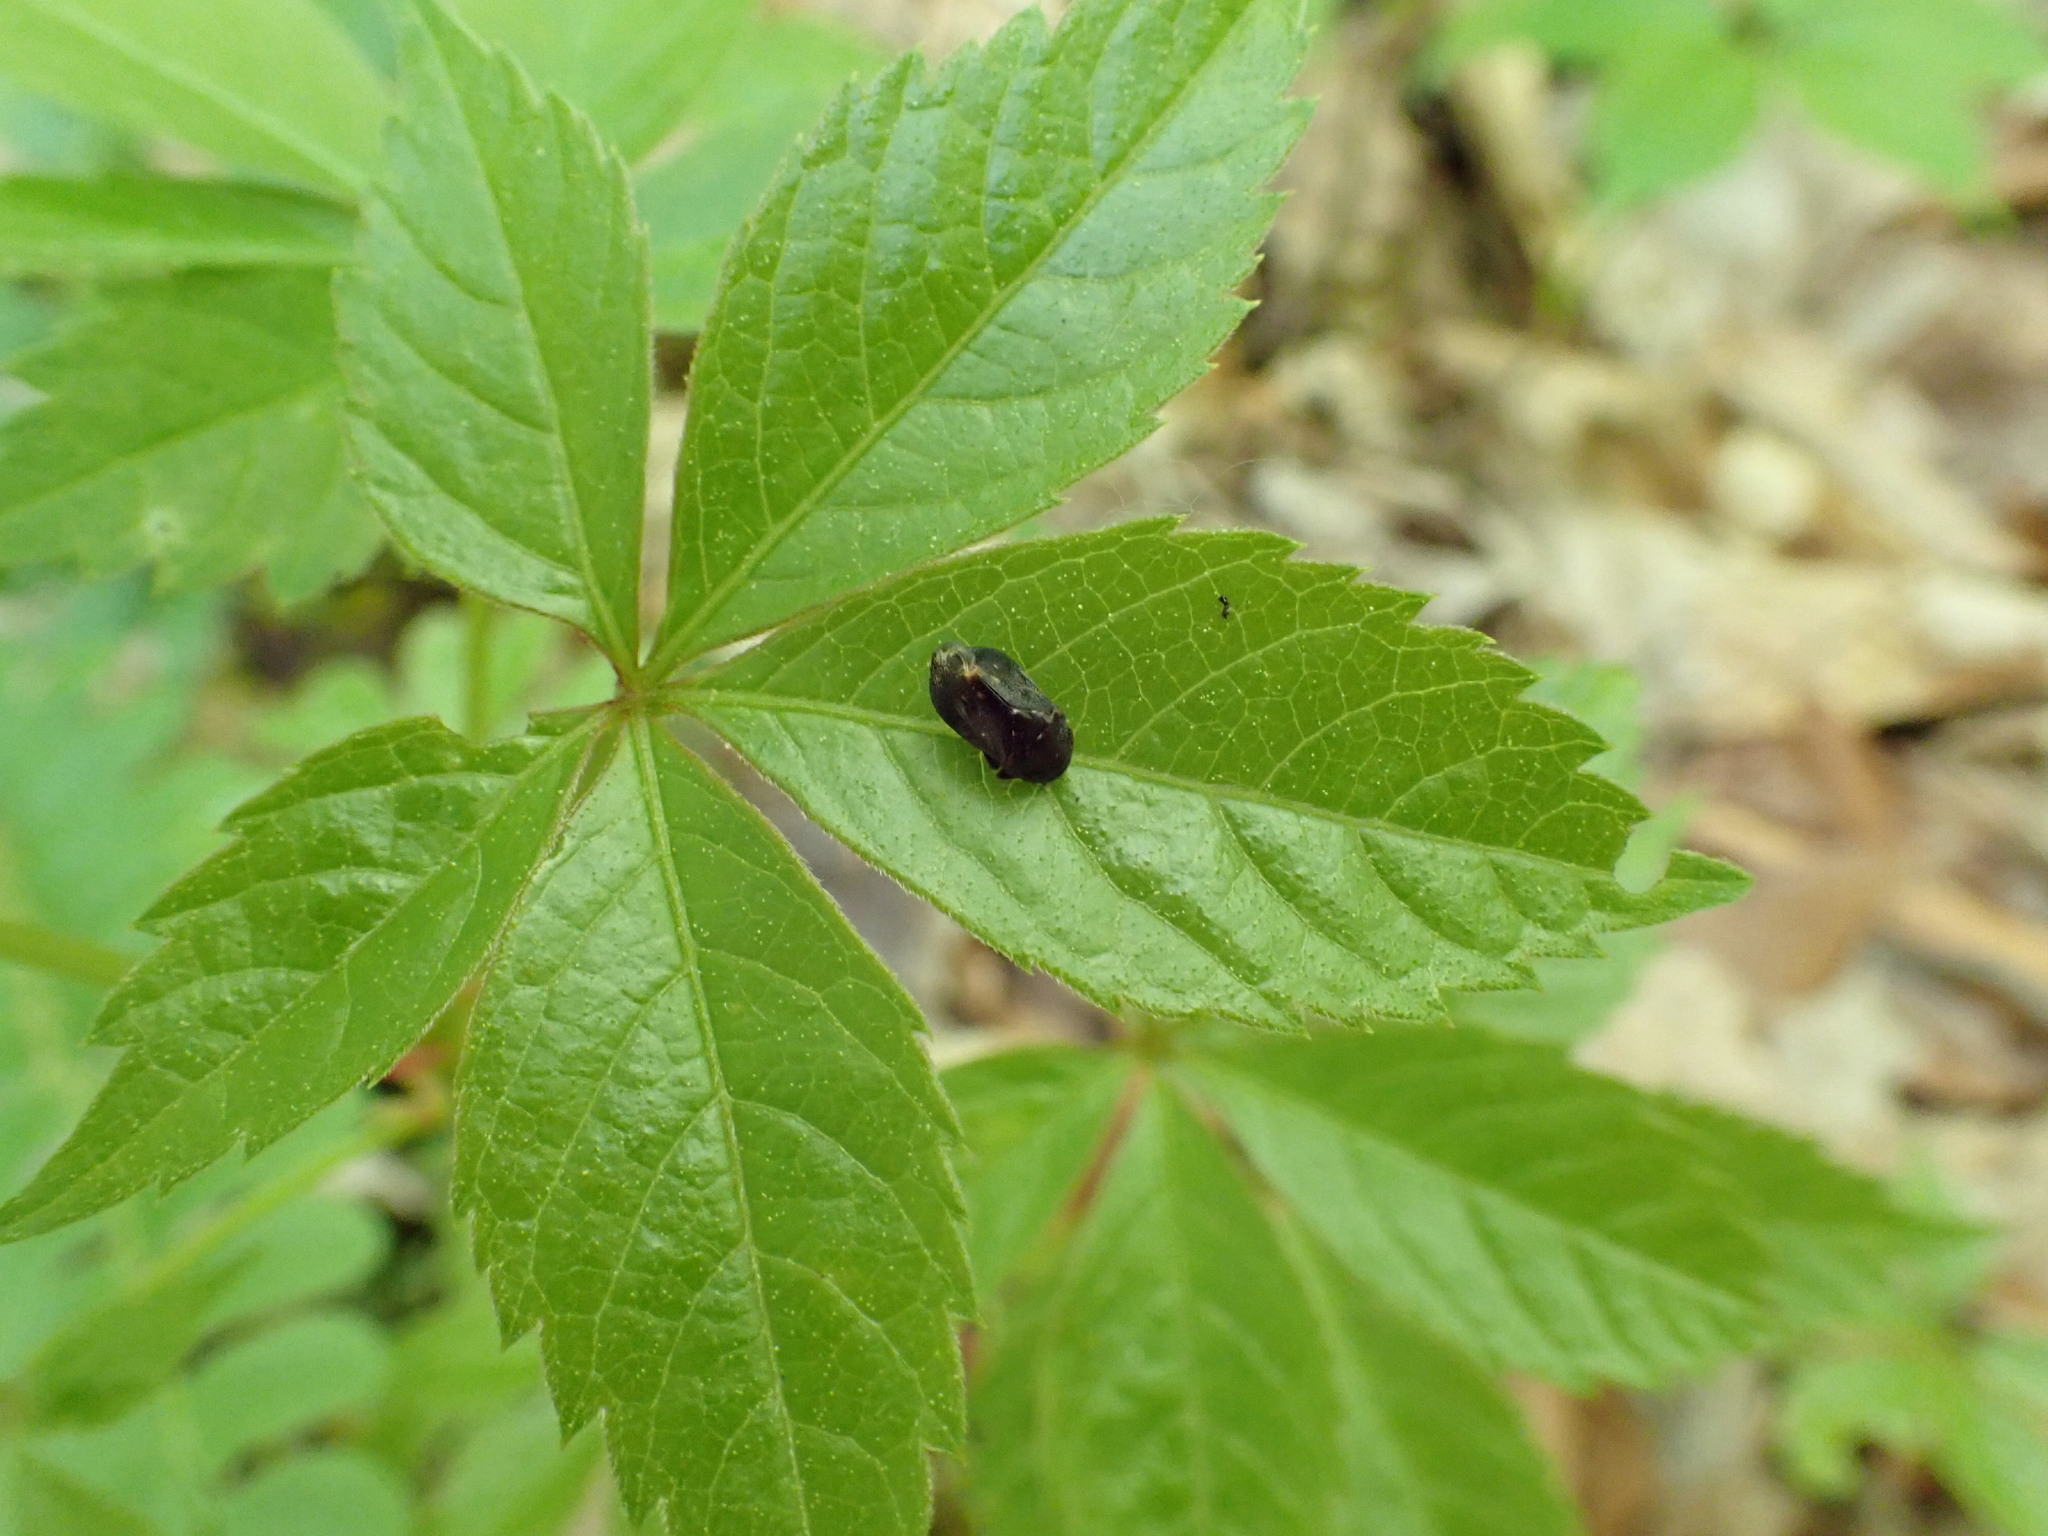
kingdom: Animalia
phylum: Arthropoda
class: Insecta
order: Hemiptera
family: Cicadellidae
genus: Penthimia
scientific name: Penthimia americana
